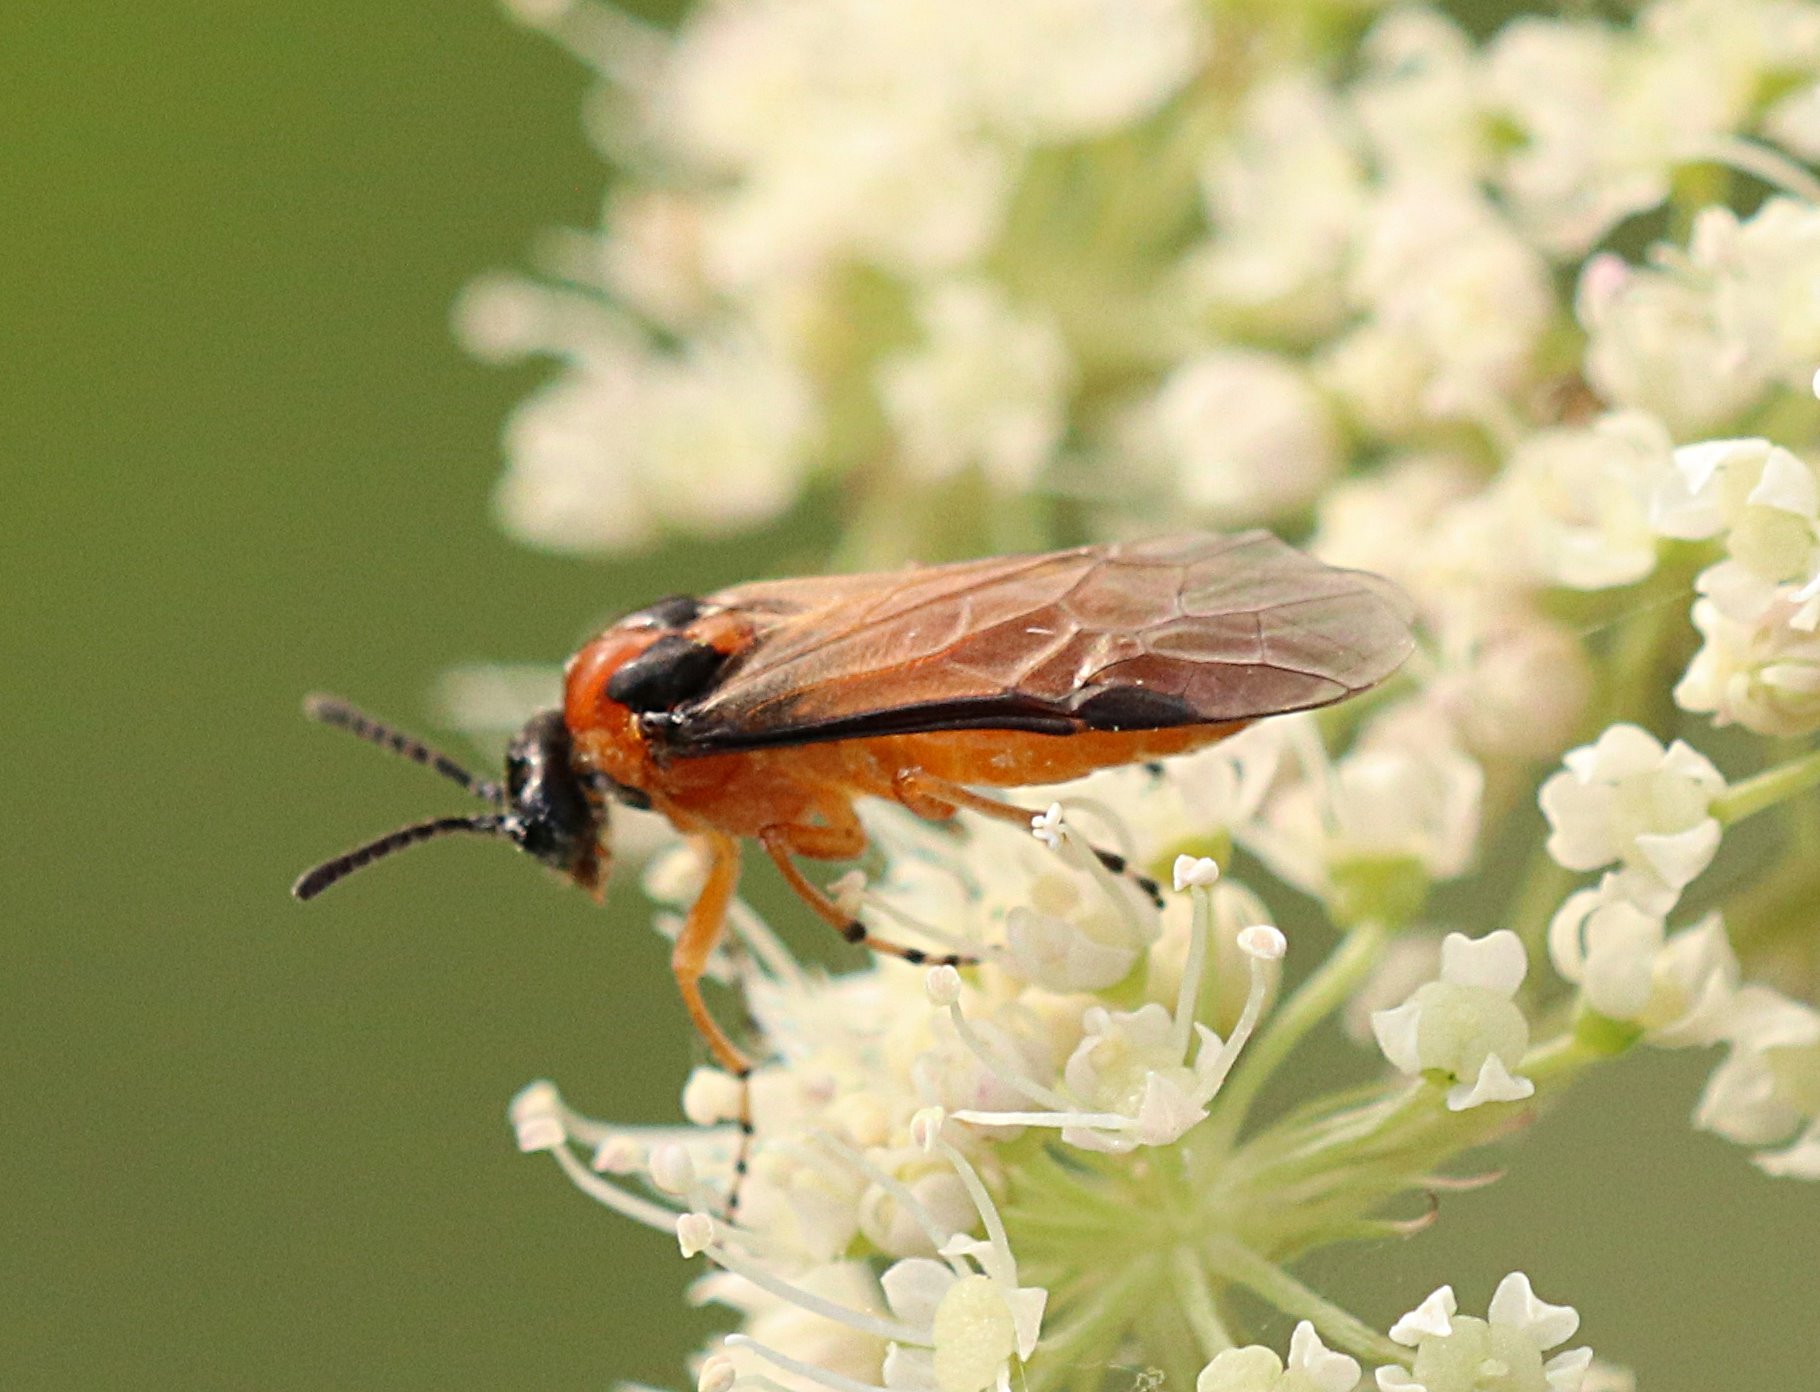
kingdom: Animalia
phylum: Arthropoda
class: Insecta
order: Hymenoptera
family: Tenthredinidae
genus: Athalia
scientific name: Athalia rosae
